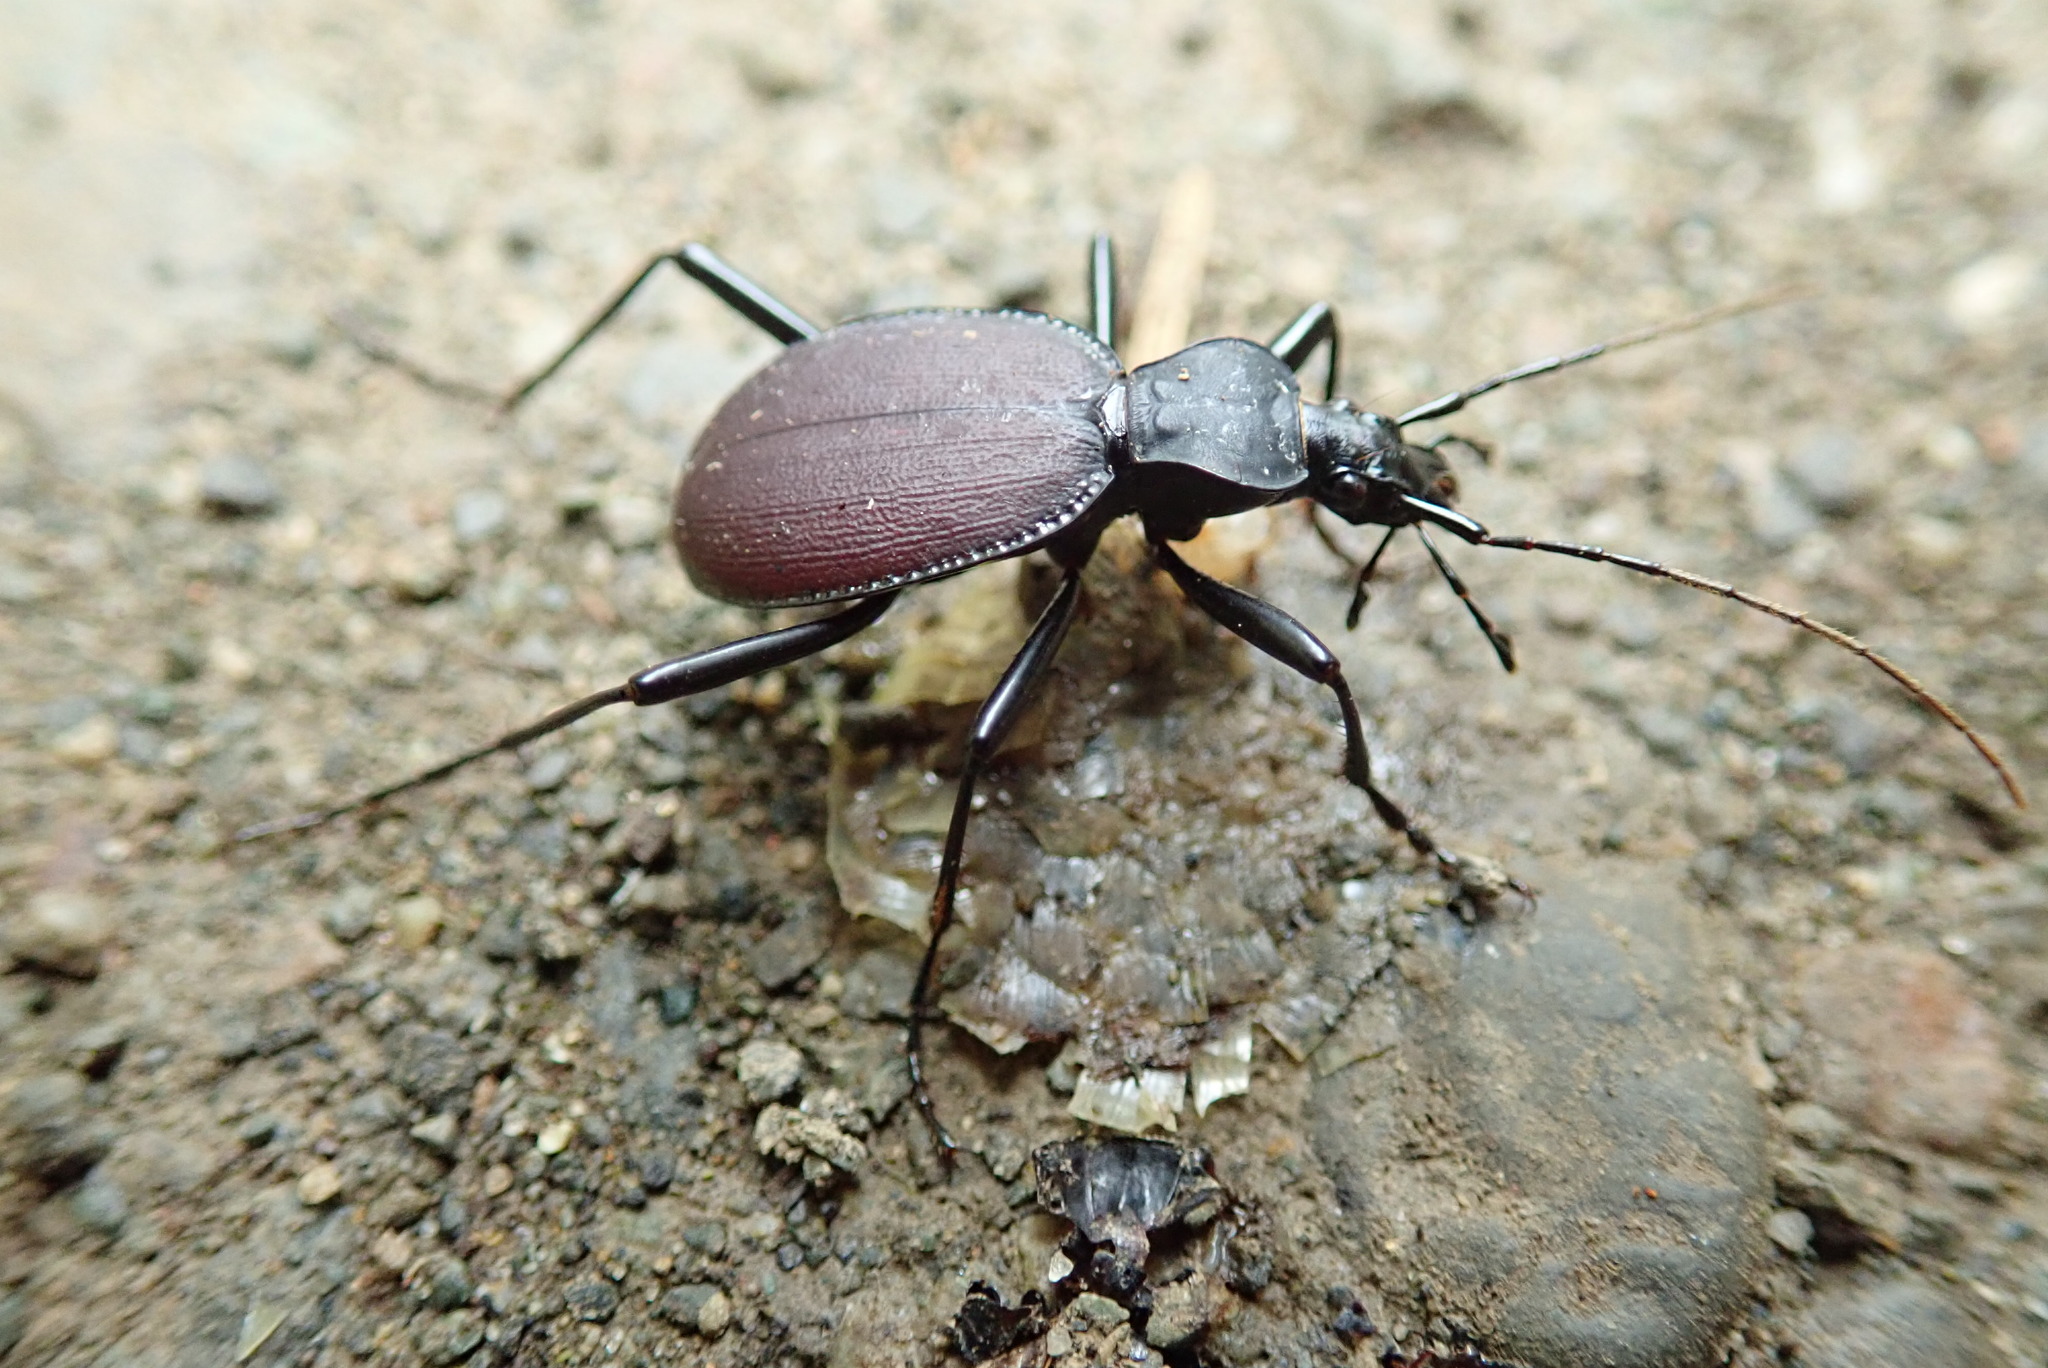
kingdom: Animalia
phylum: Arthropoda
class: Insecta
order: Coleoptera
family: Carabidae
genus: Scaphinotus
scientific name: Scaphinotus angusticollis
